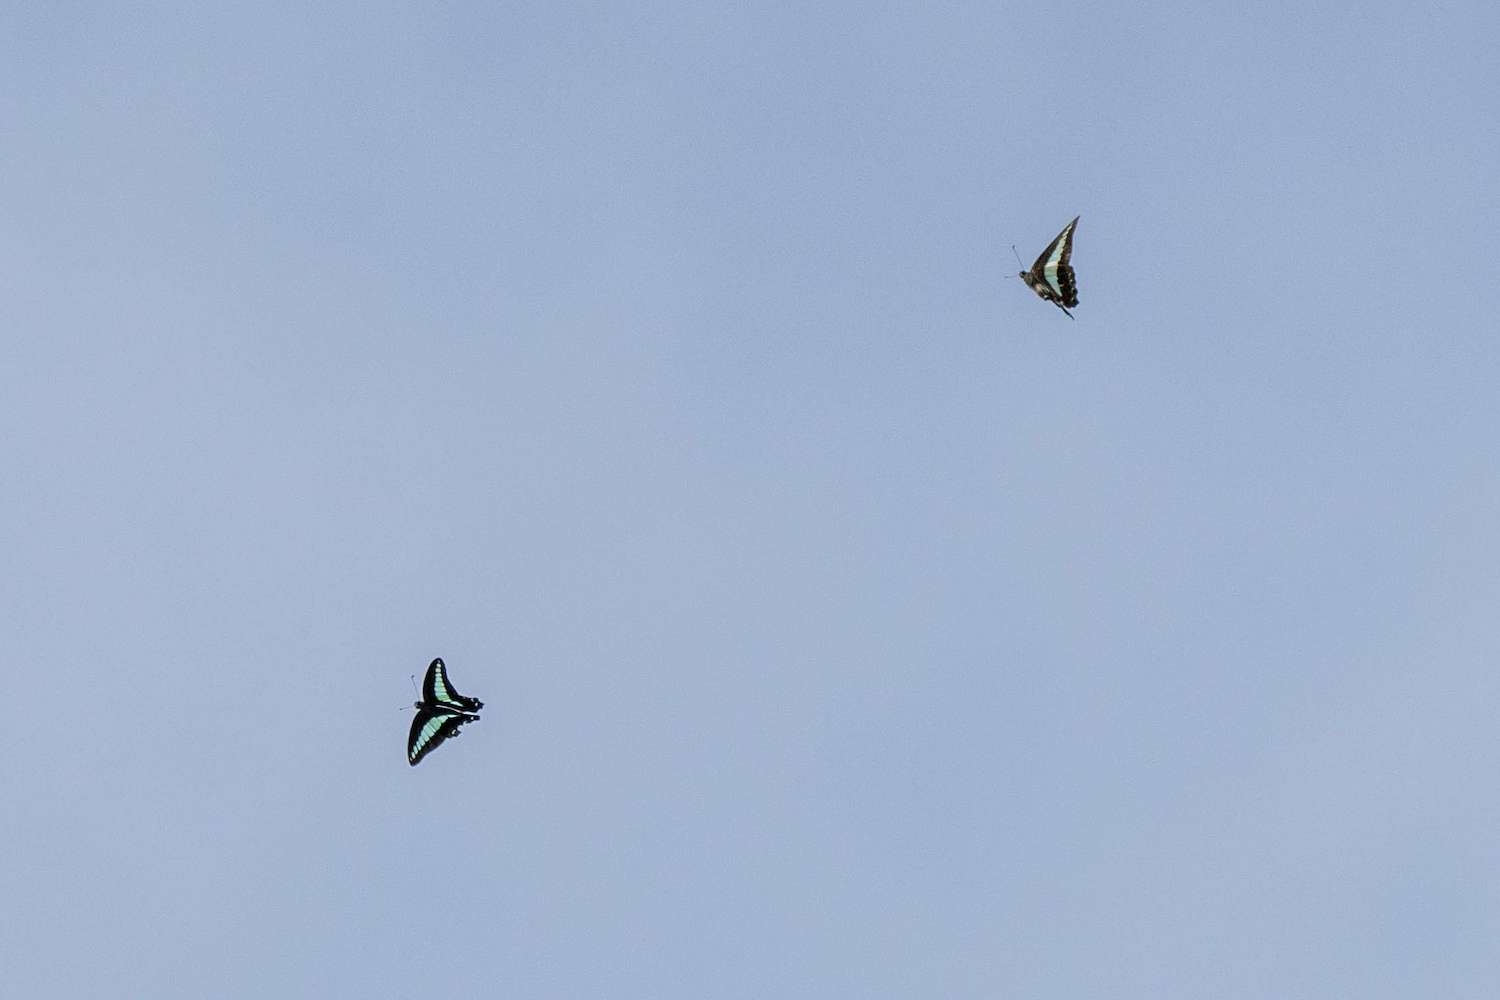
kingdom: Fungi
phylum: Ascomycota
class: Sordariomycetes
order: Microascales
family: Microascaceae
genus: Graphium
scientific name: Graphium sarpedon
